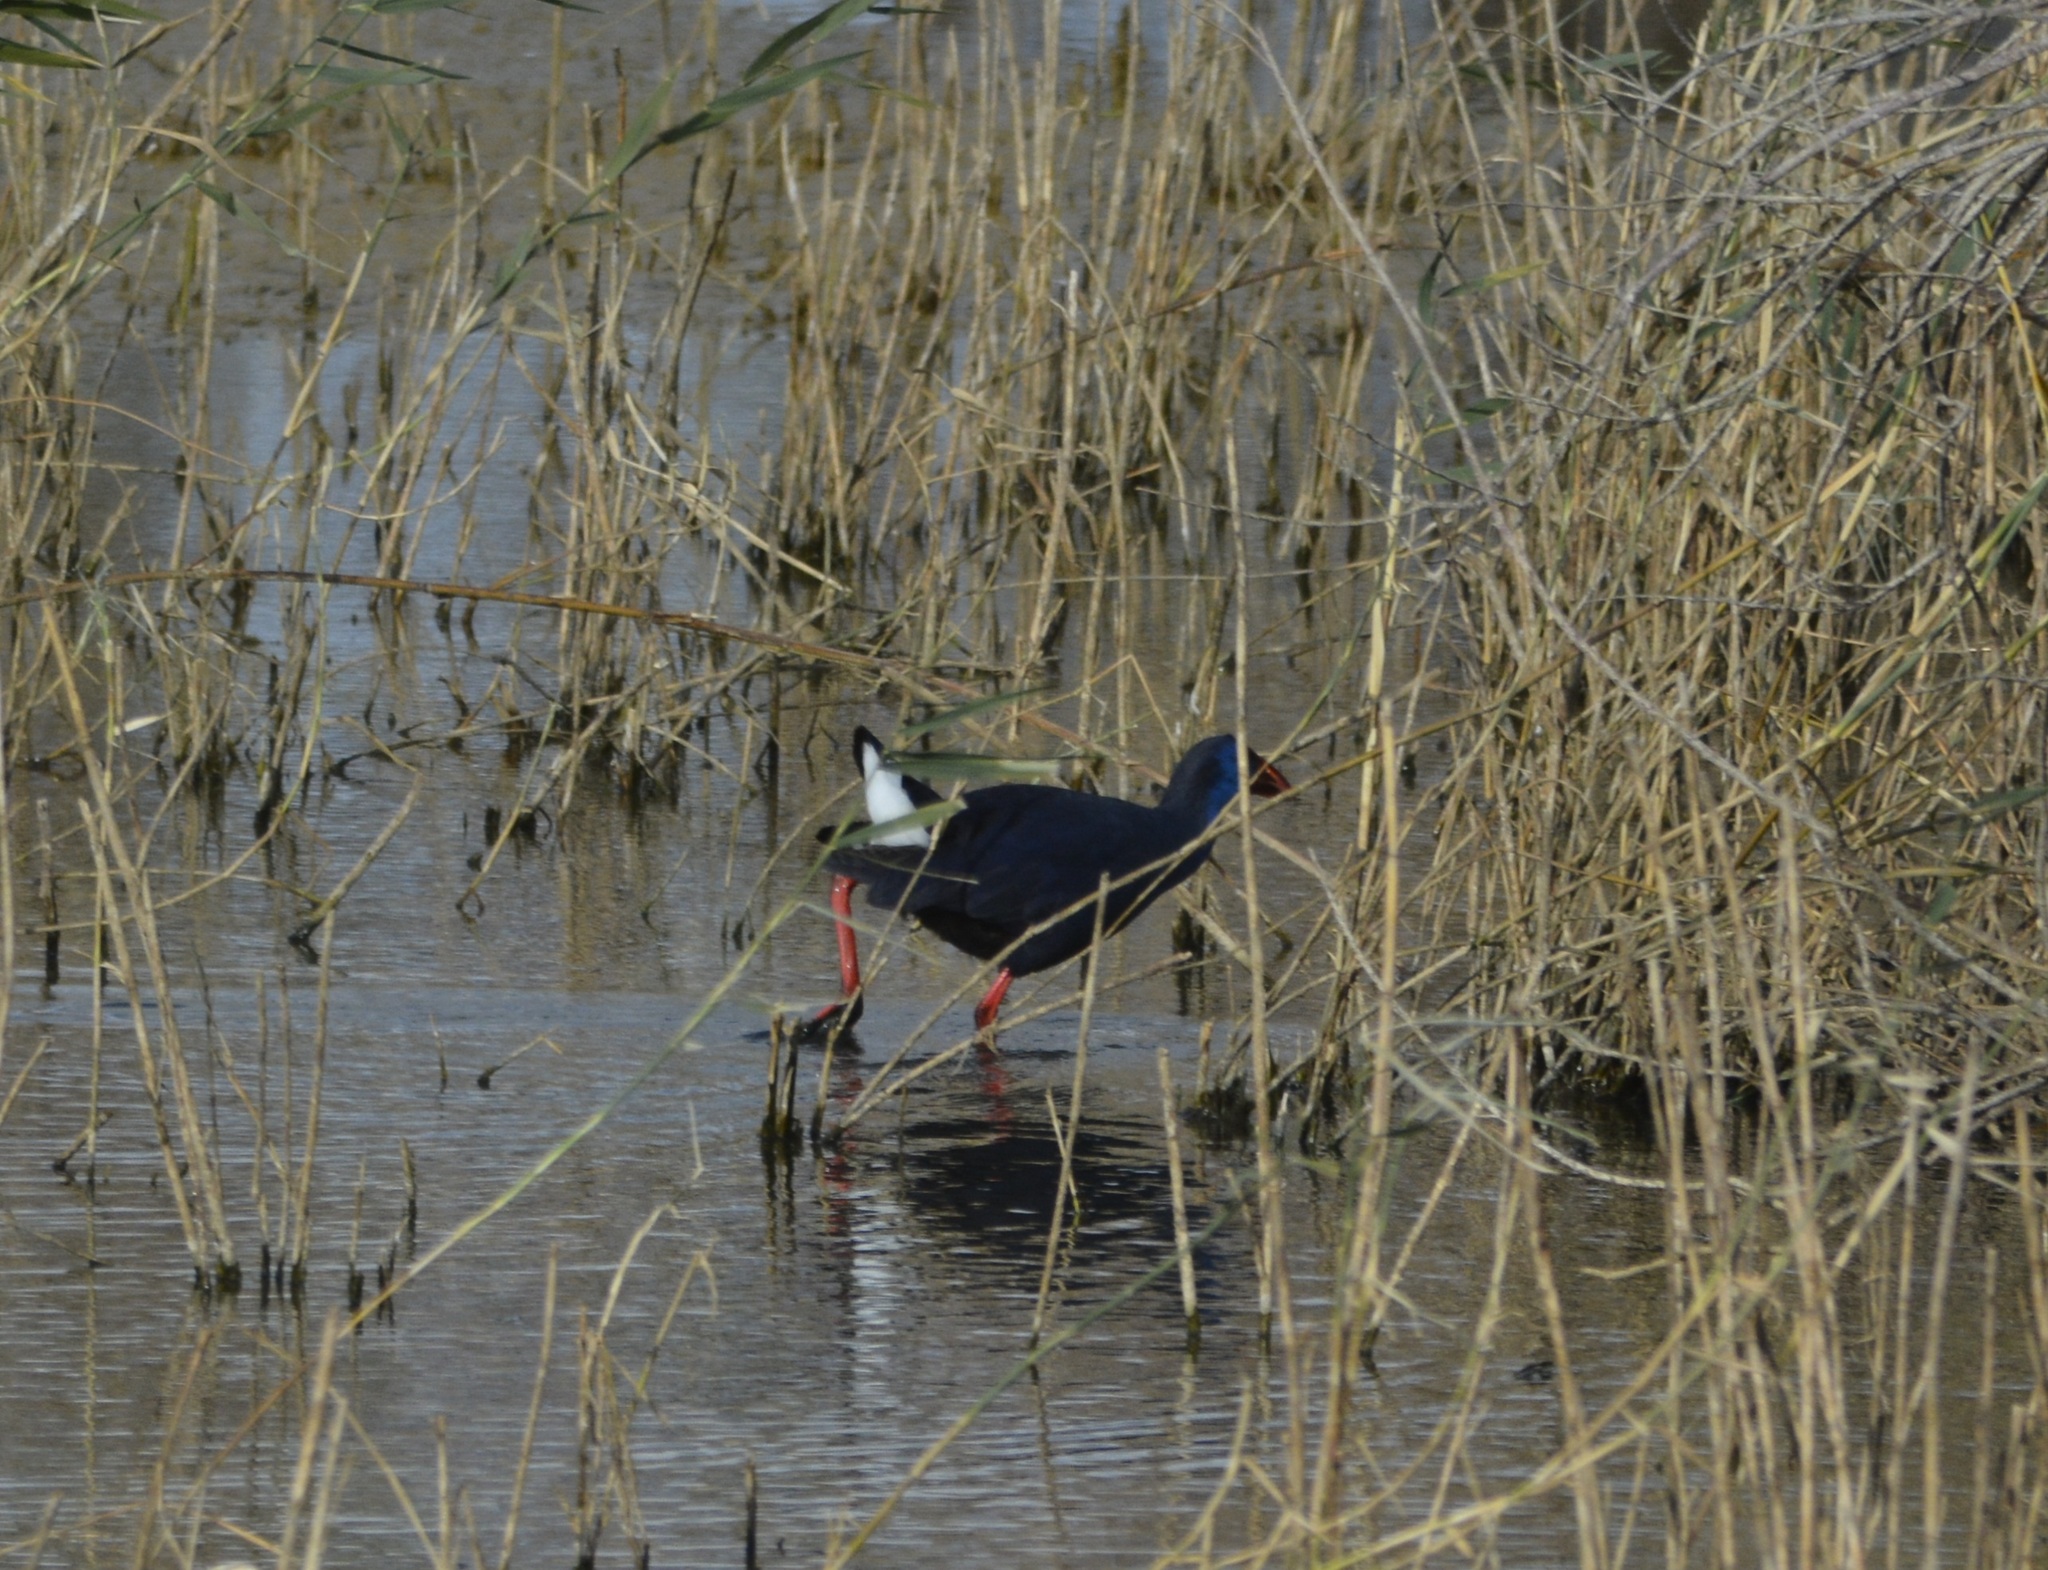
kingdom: Animalia
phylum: Chordata
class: Aves
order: Gruiformes
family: Rallidae
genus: Porphyrio
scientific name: Porphyrio porphyrio
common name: Purple swamphen
